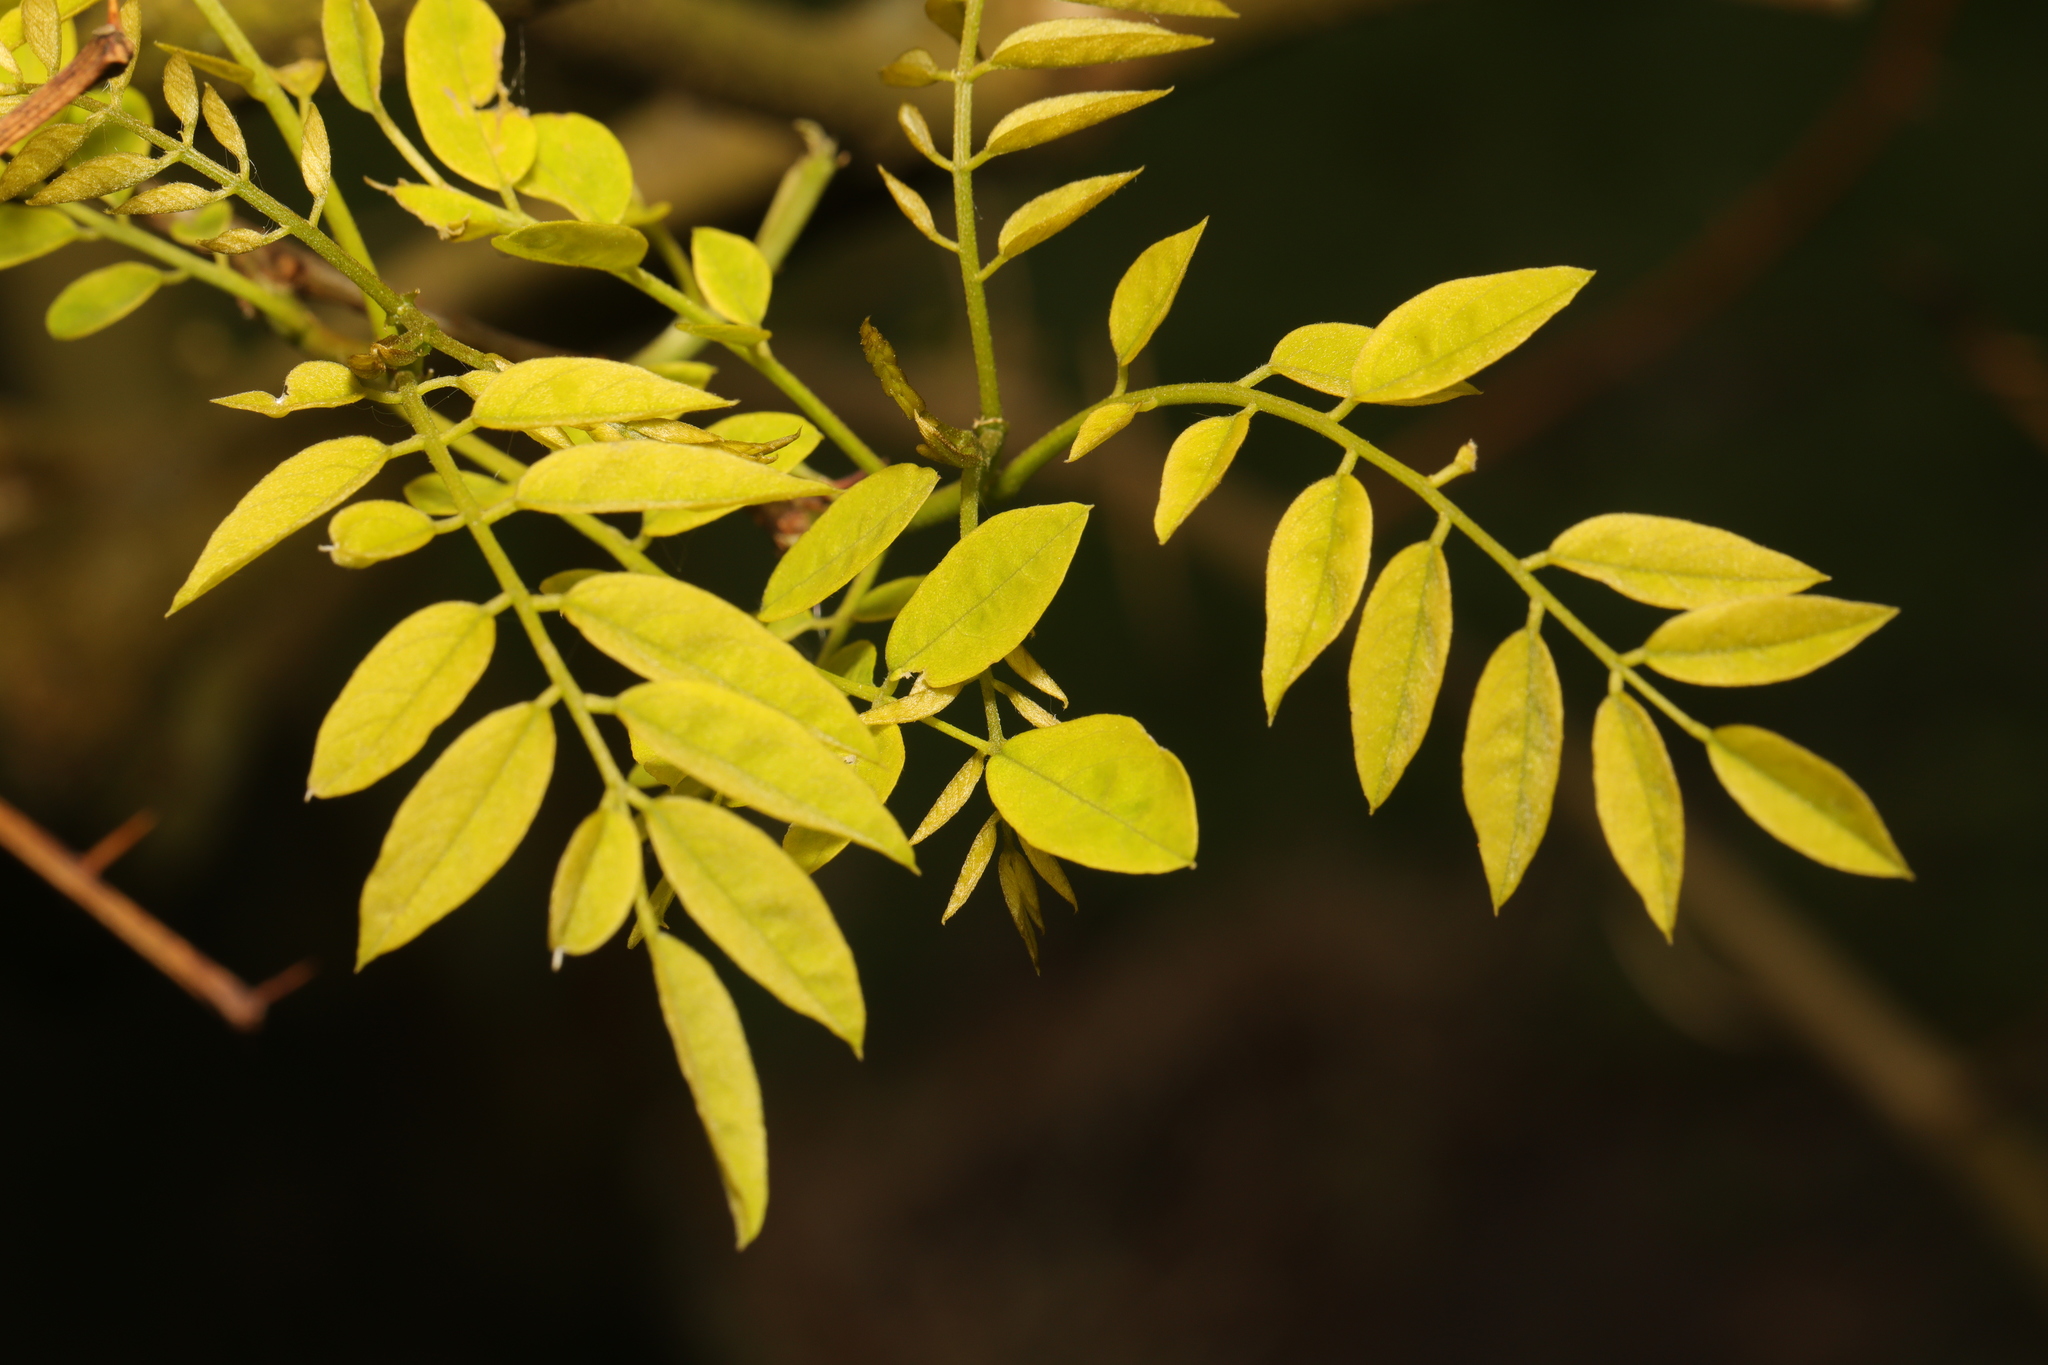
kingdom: Plantae
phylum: Tracheophyta
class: Magnoliopsida
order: Fabales
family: Fabaceae
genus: Robinia
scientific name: Robinia pseudoacacia
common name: Black locust
